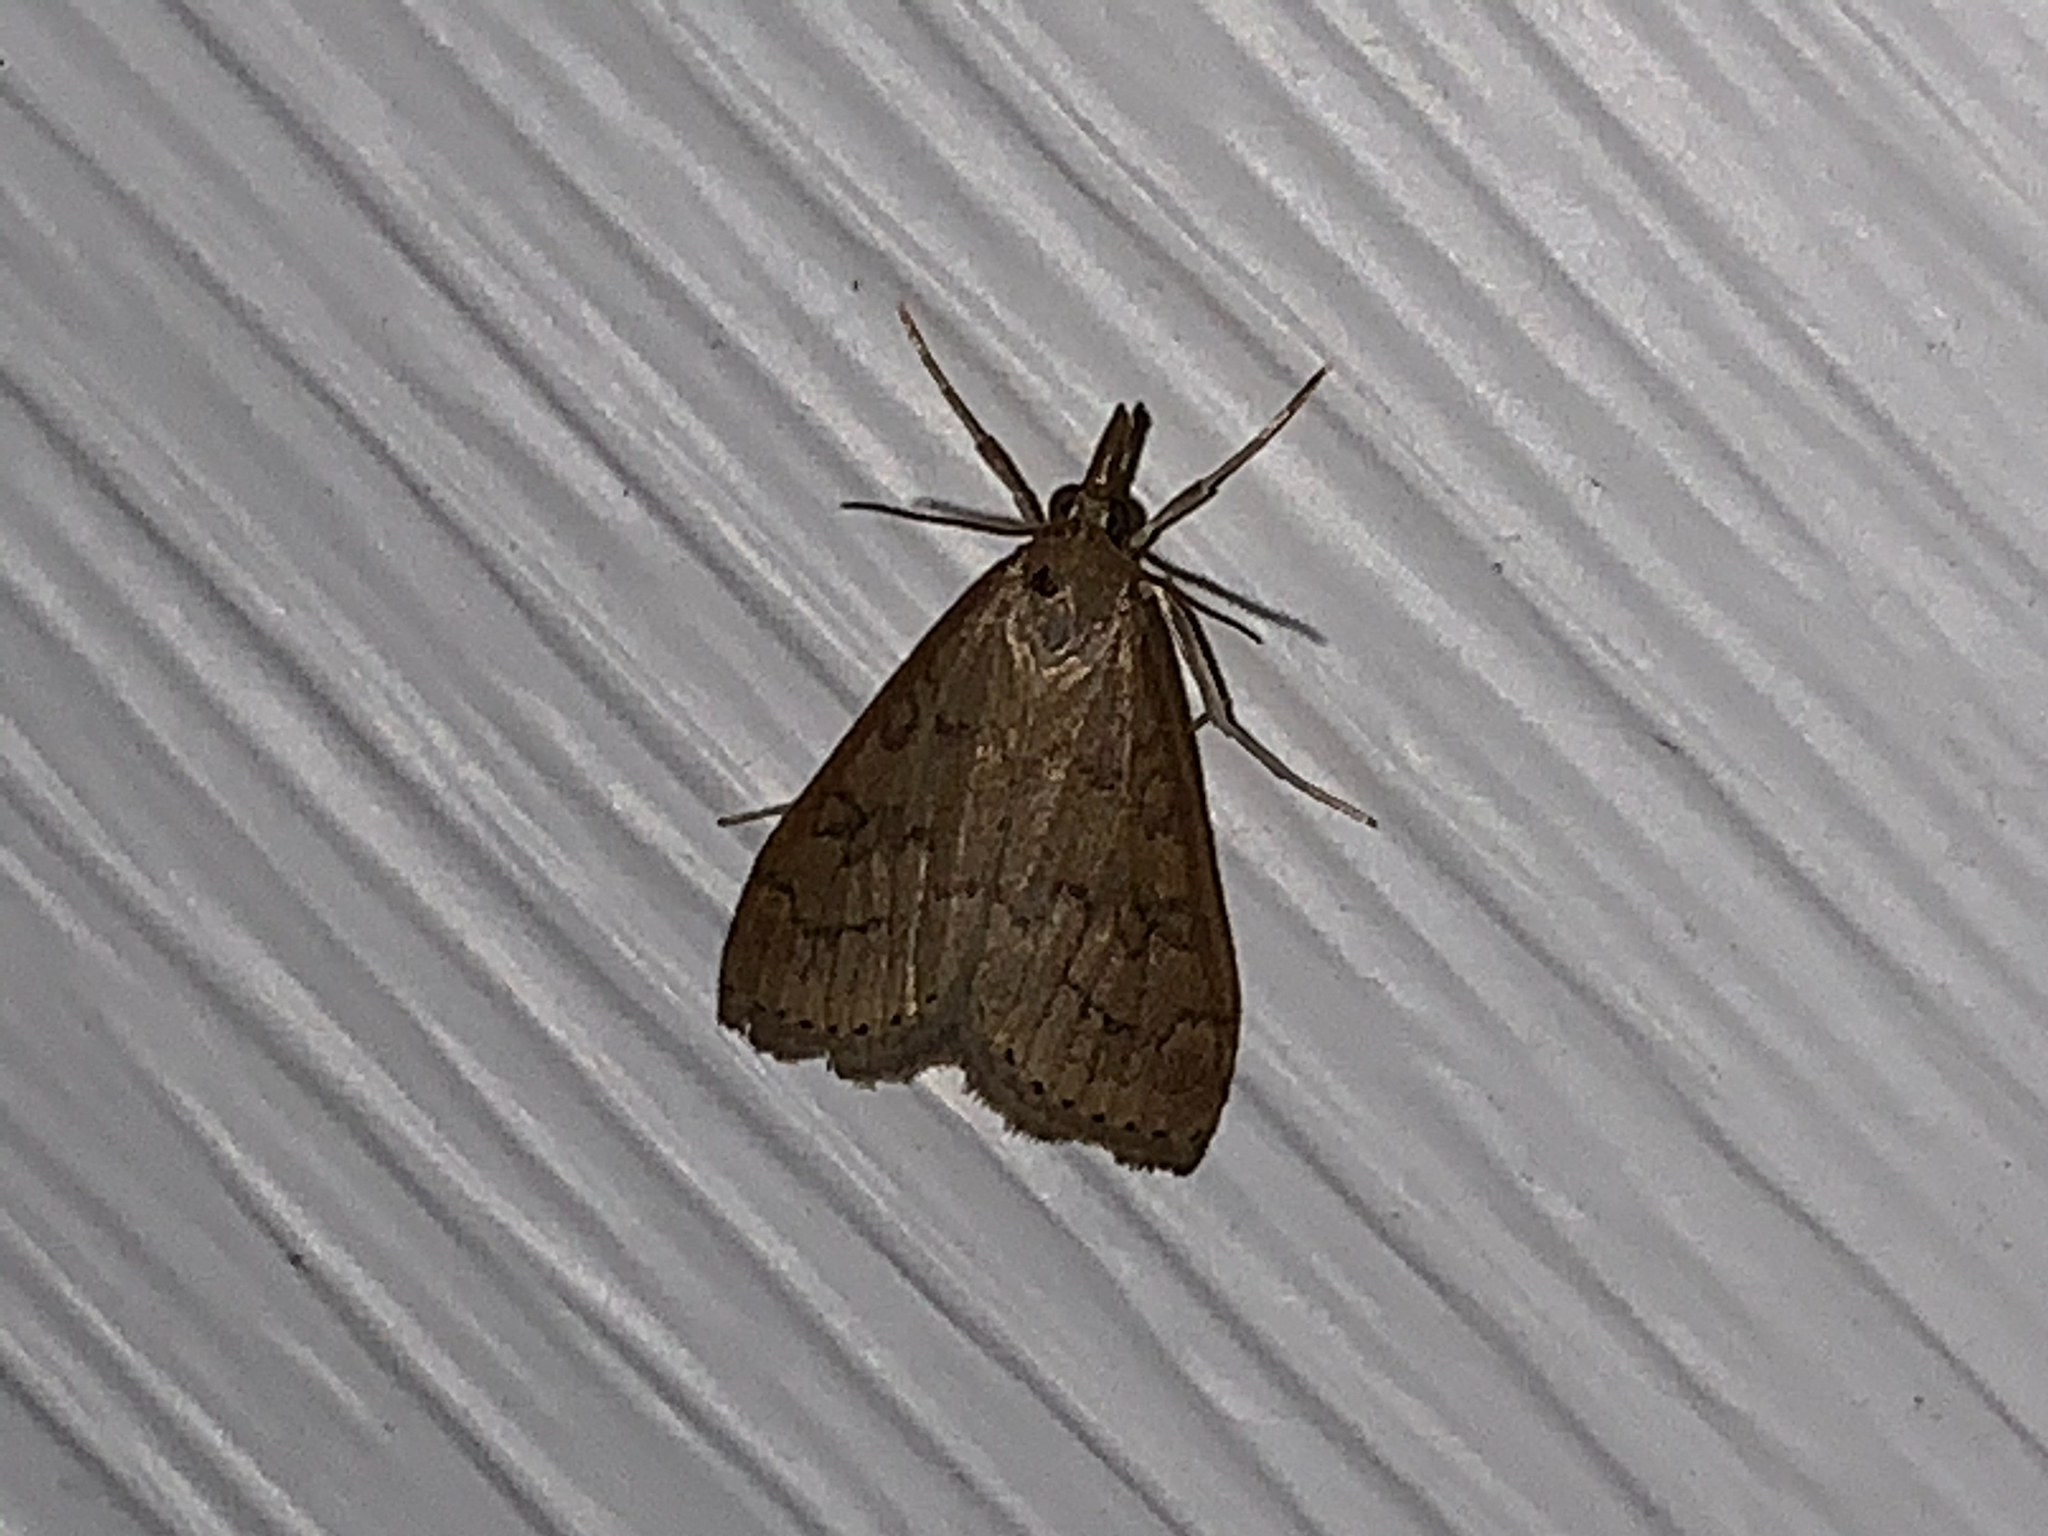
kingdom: Animalia
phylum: Arthropoda
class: Insecta
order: Lepidoptera
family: Crambidae
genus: Udea
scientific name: Udea rubigalis
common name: Celery leaftier moth
